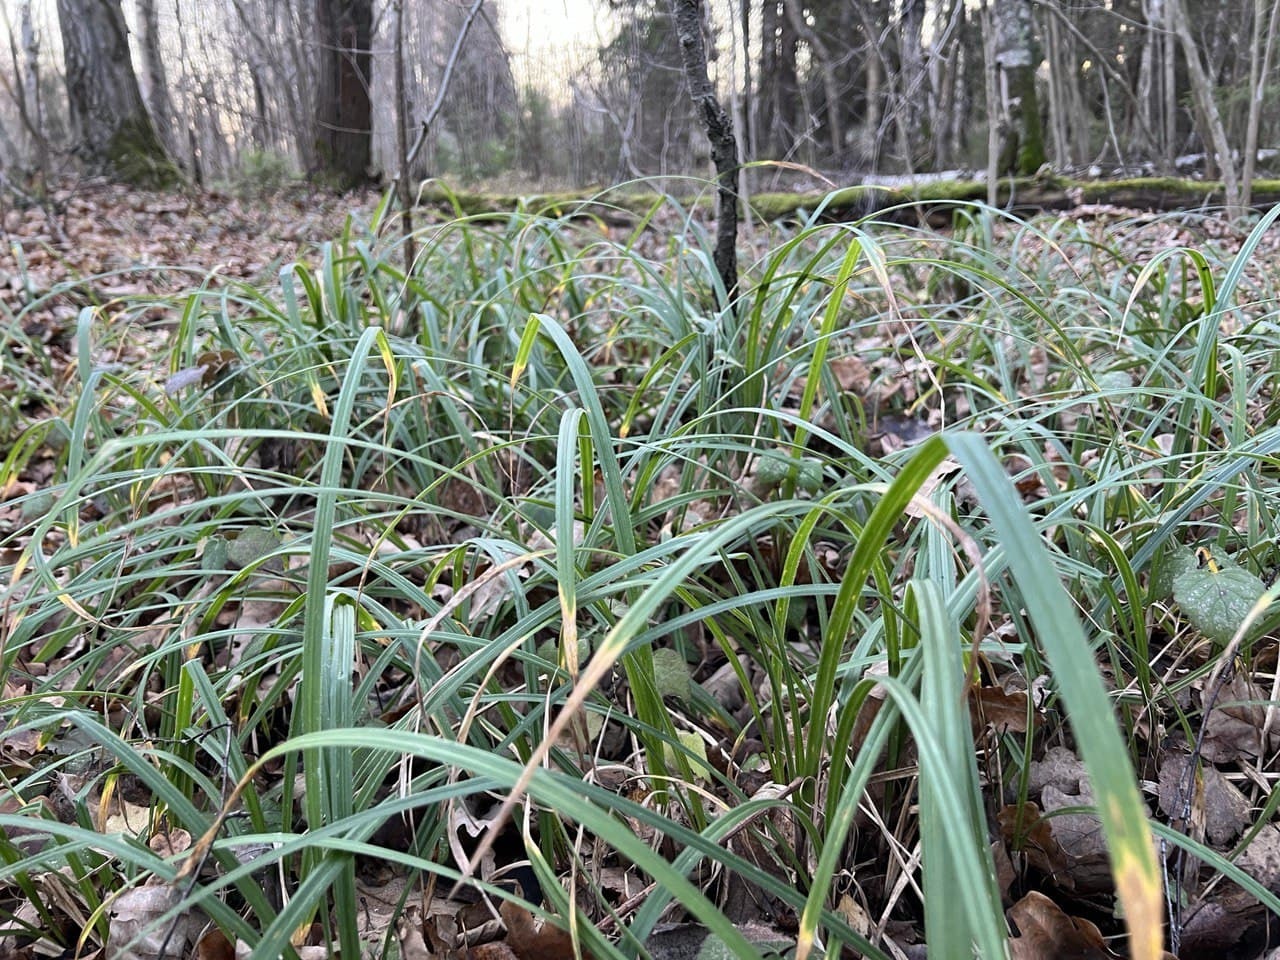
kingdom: Plantae
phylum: Tracheophyta
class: Liliopsida
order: Poales
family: Cyperaceae
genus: Carex
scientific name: Carex pilosa
